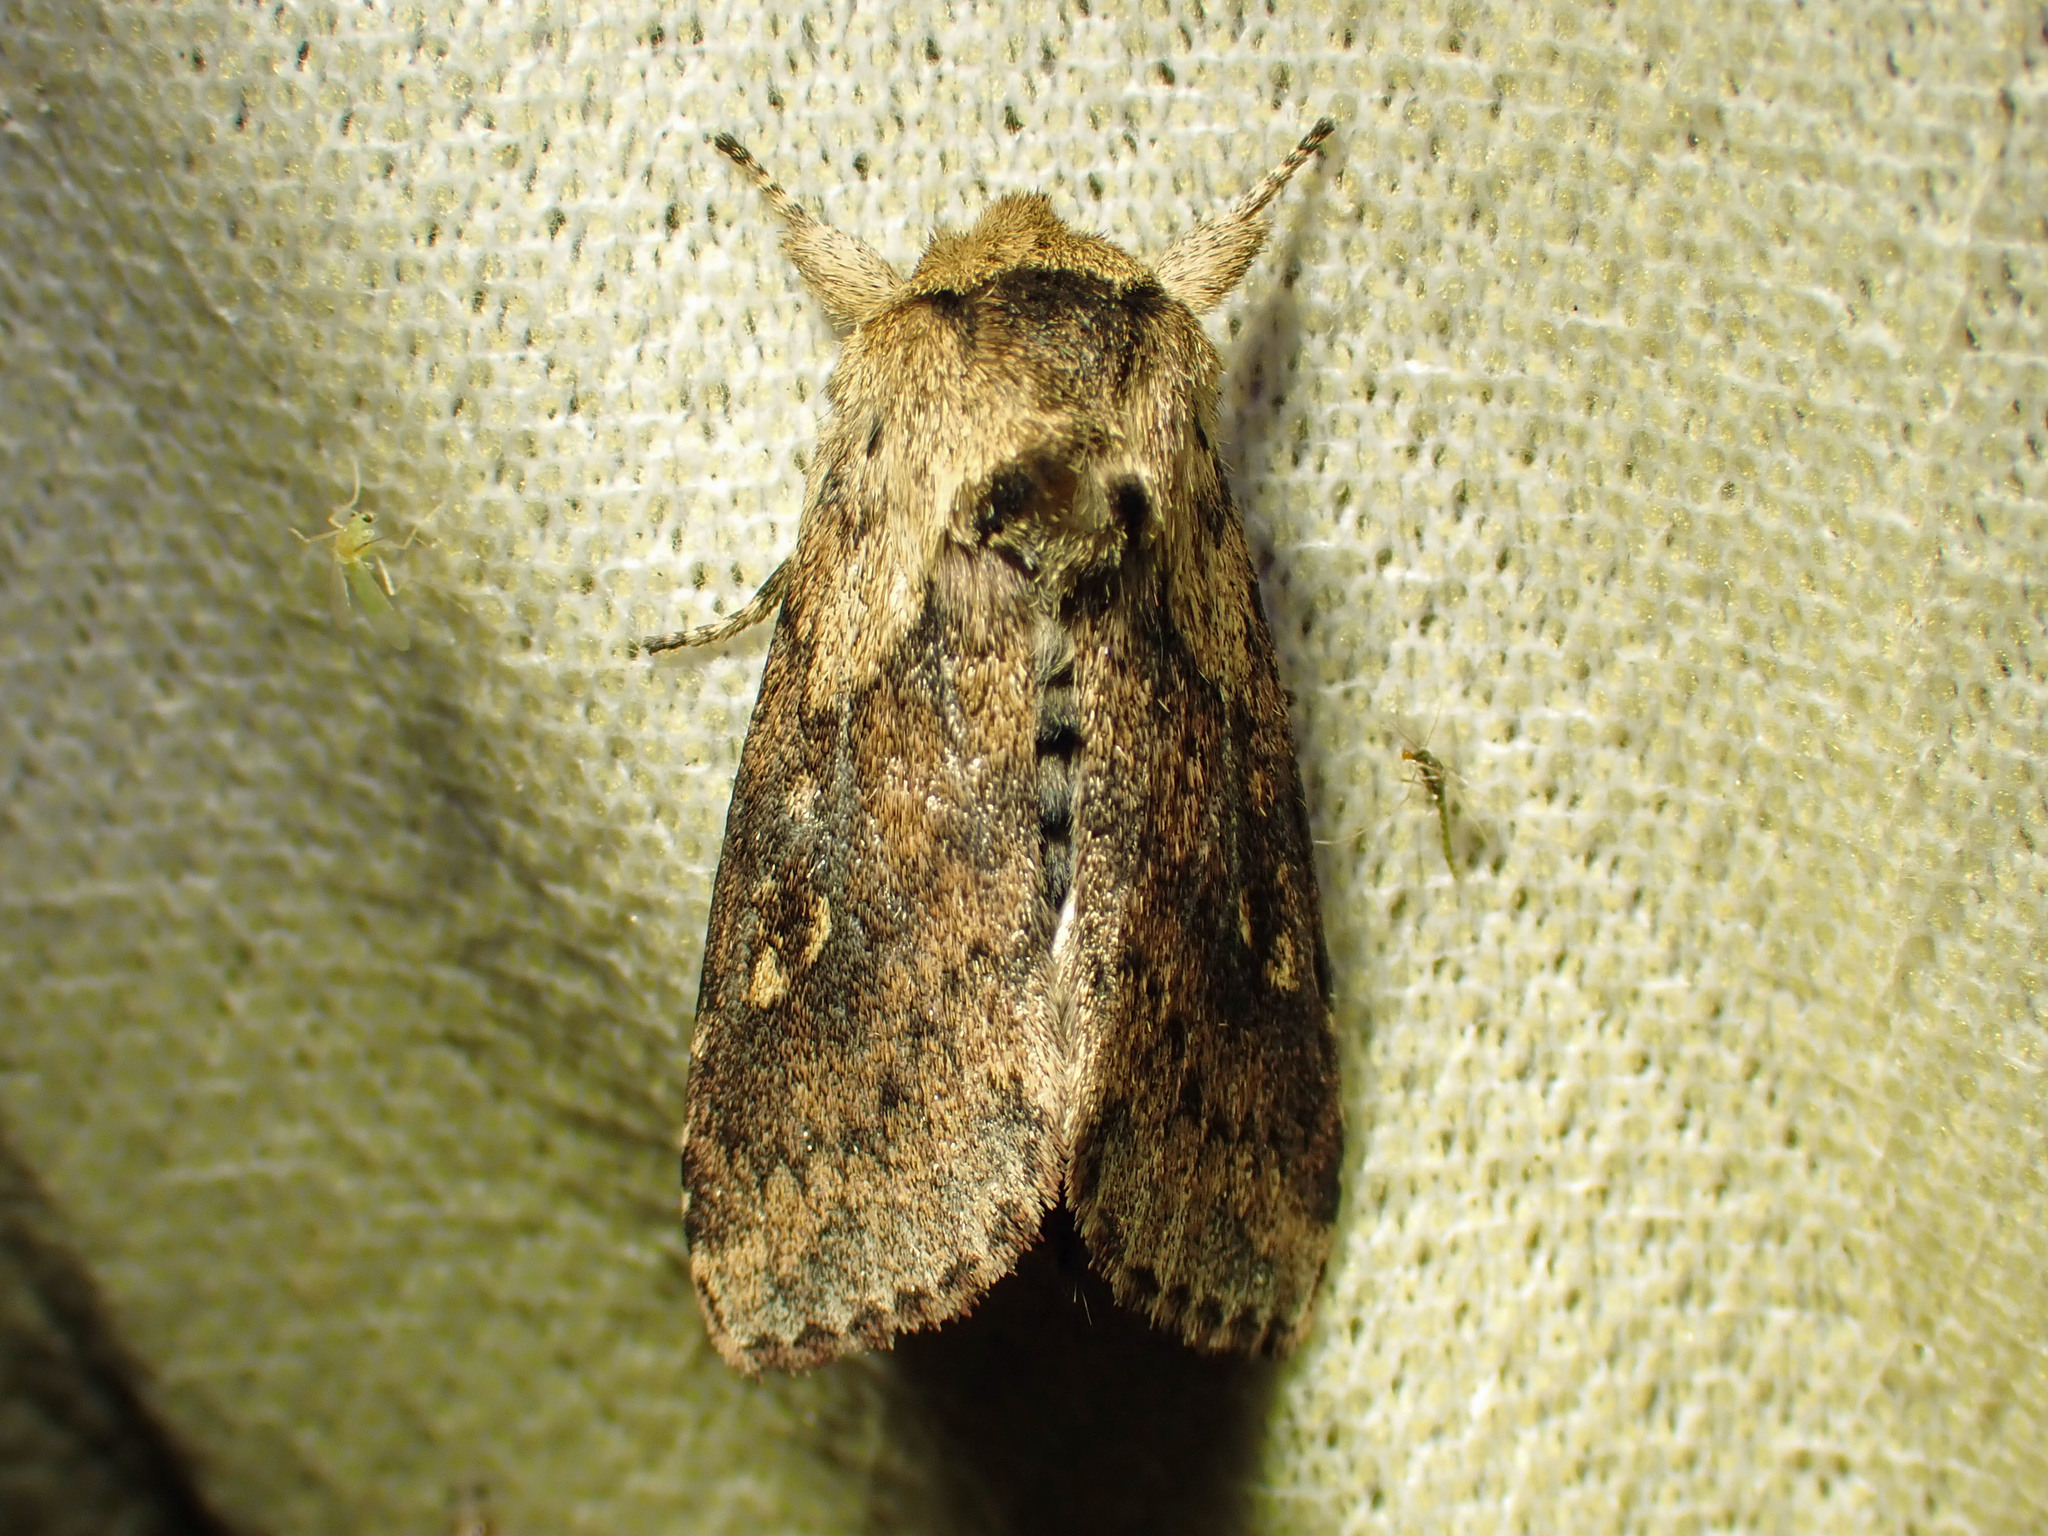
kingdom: Animalia
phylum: Arthropoda
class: Insecta
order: Lepidoptera
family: Noctuidae
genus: Bellura
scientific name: Bellura vulnifica
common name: Black-tailed diver moth
